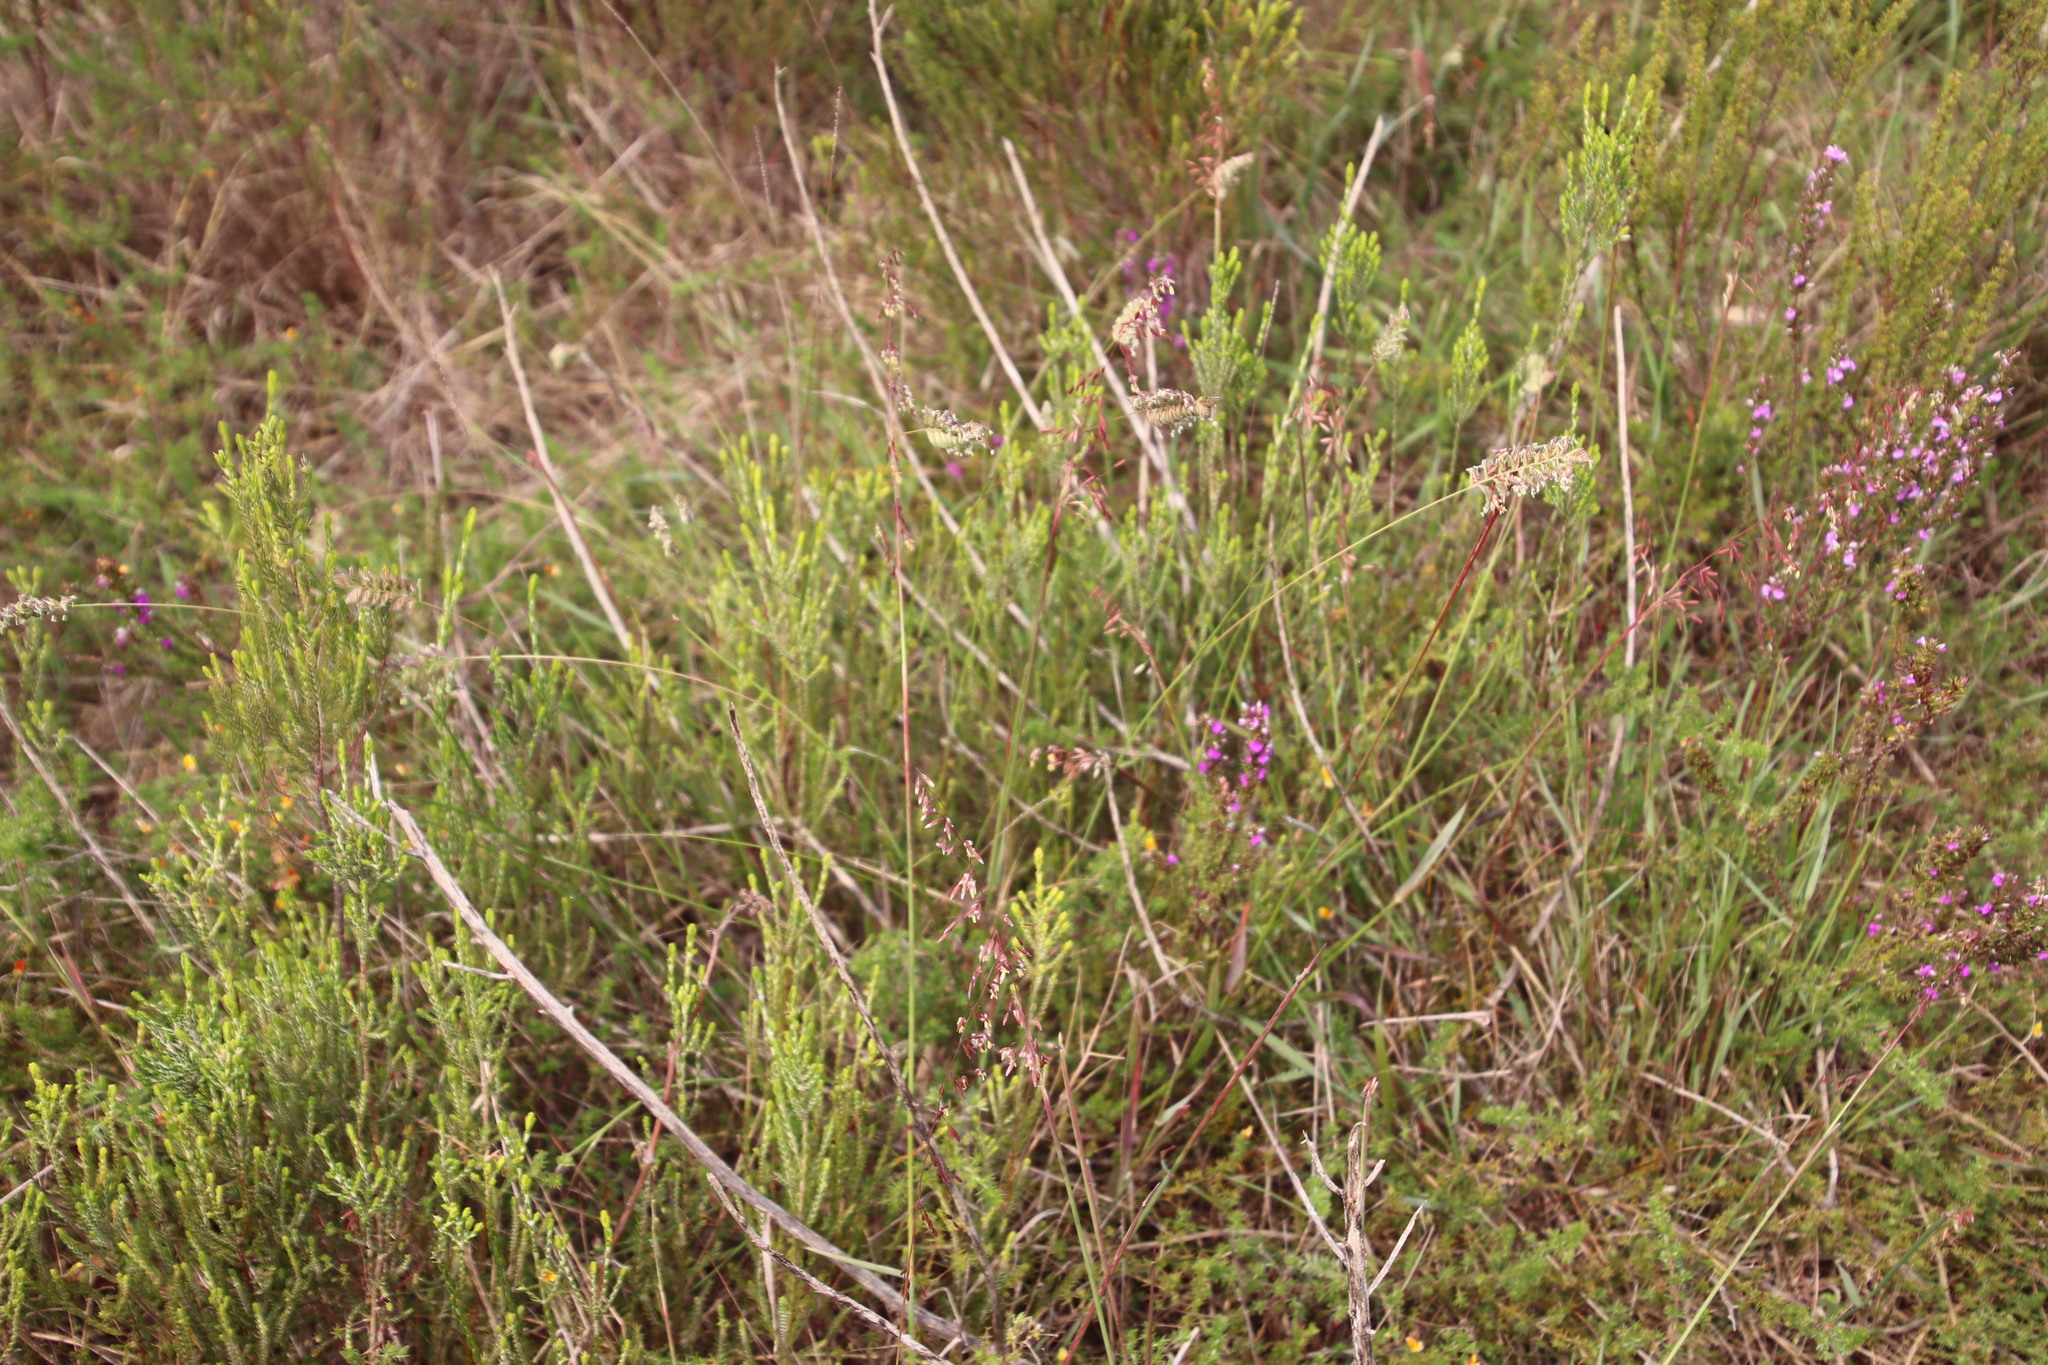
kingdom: Plantae
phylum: Tracheophyta
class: Liliopsida
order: Poales
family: Poaceae
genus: Tribolium
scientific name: Tribolium uniolae
